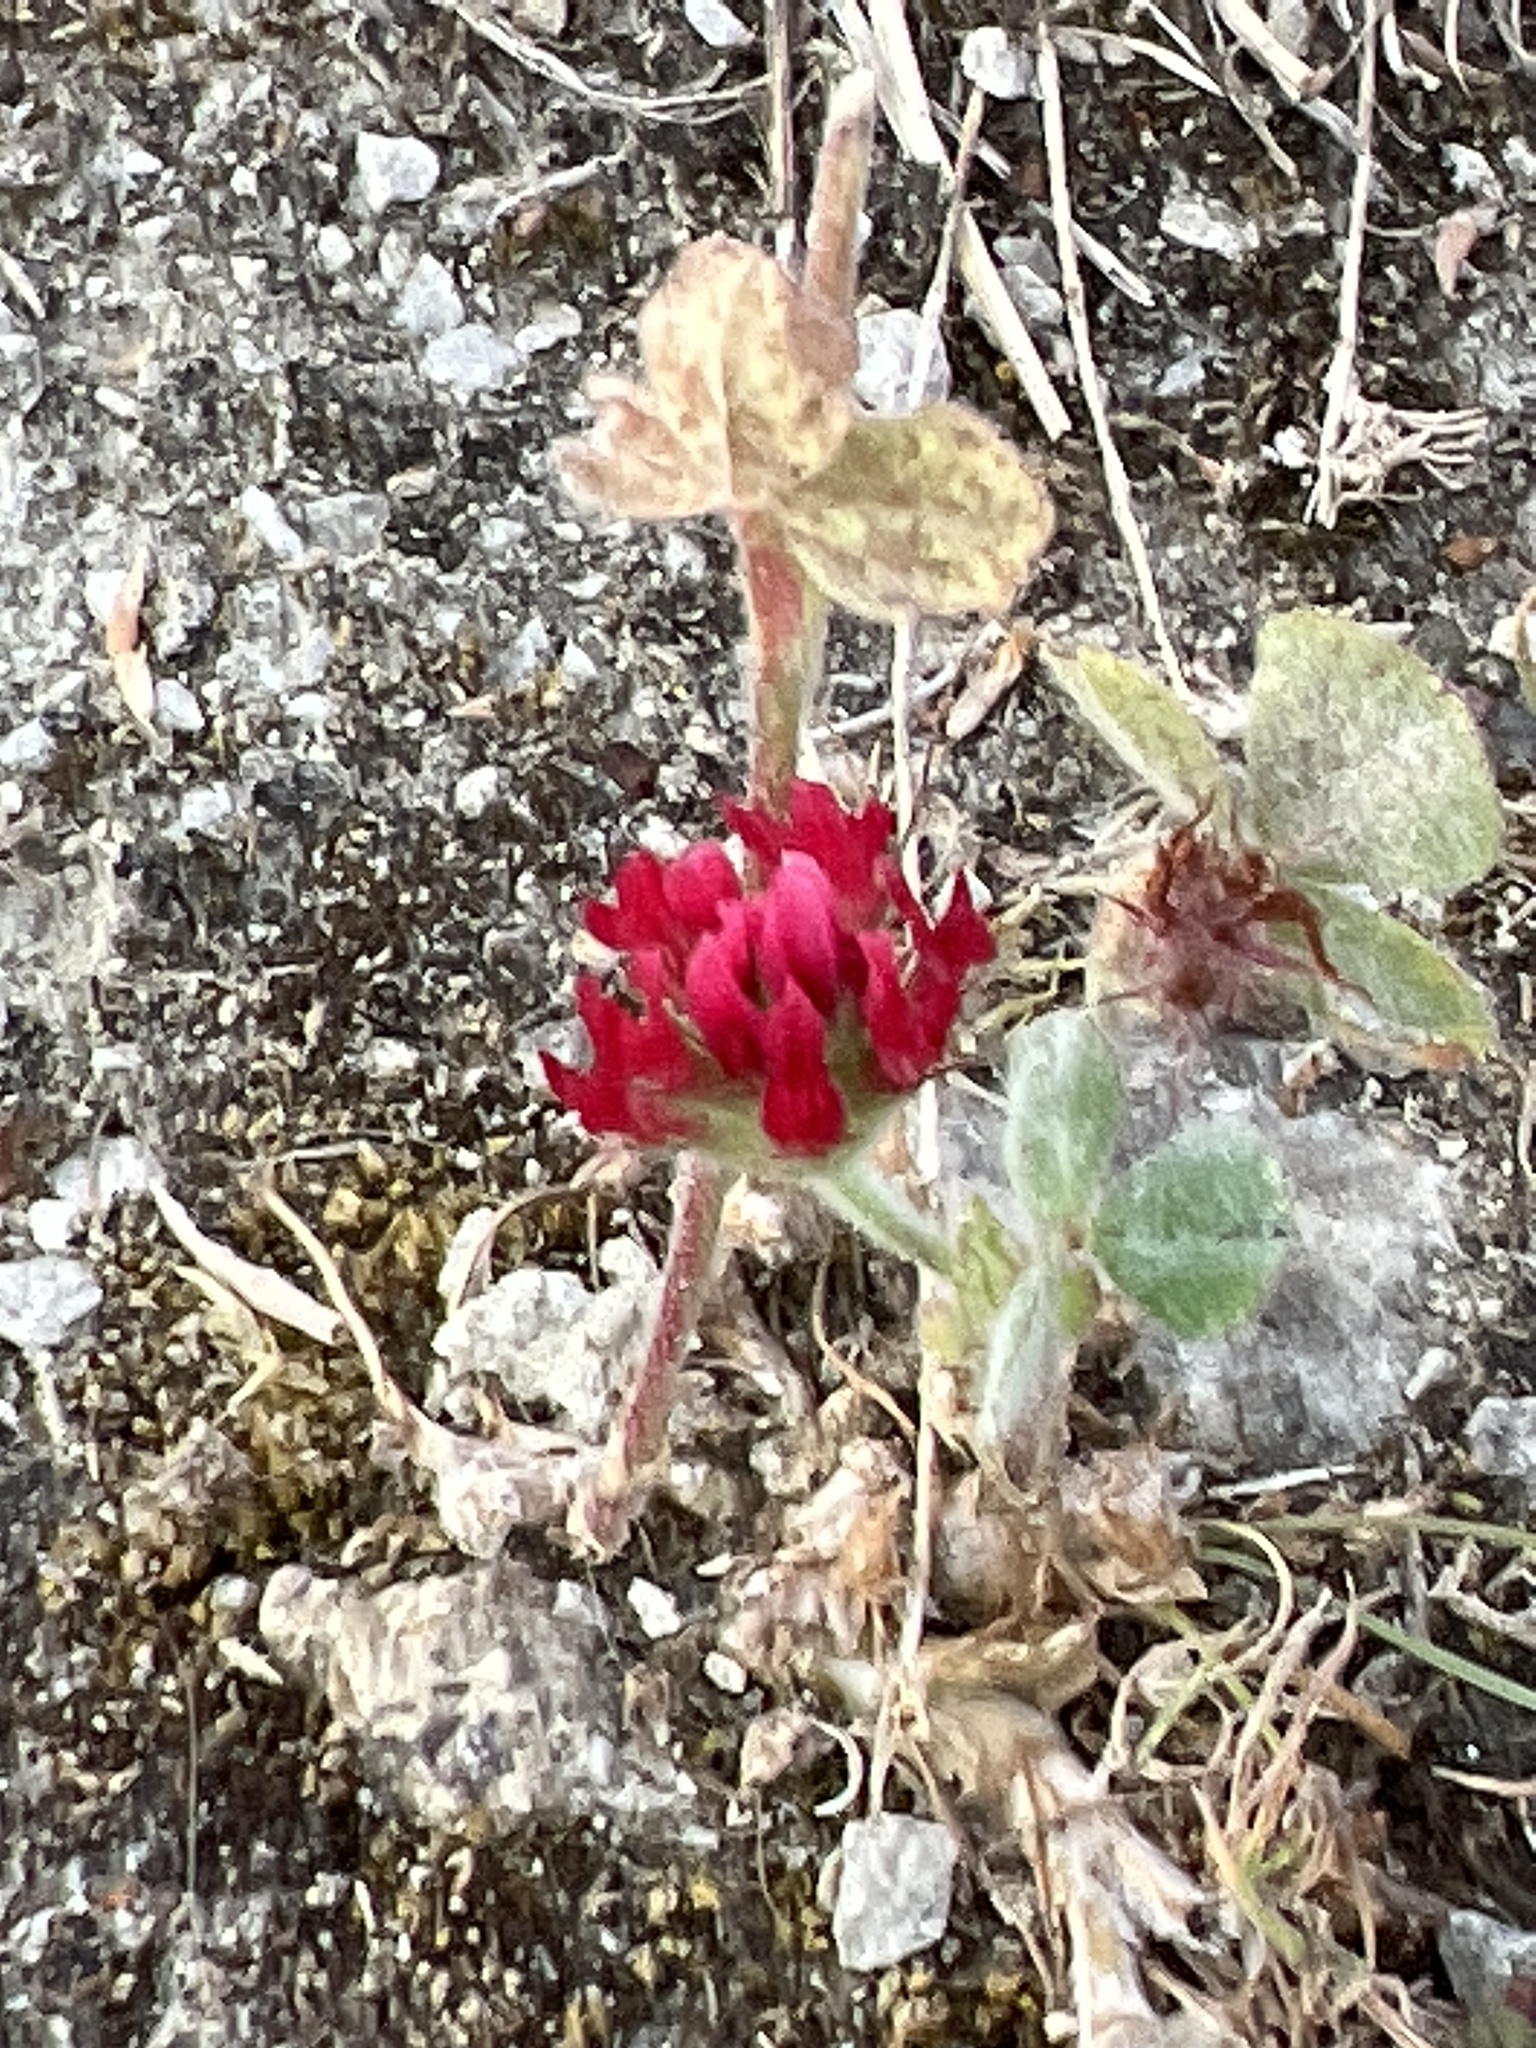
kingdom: Plantae
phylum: Tracheophyta
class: Magnoliopsida
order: Fabales
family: Fabaceae
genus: Trifolium
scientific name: Trifolium incarnatum
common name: Crimson clover
